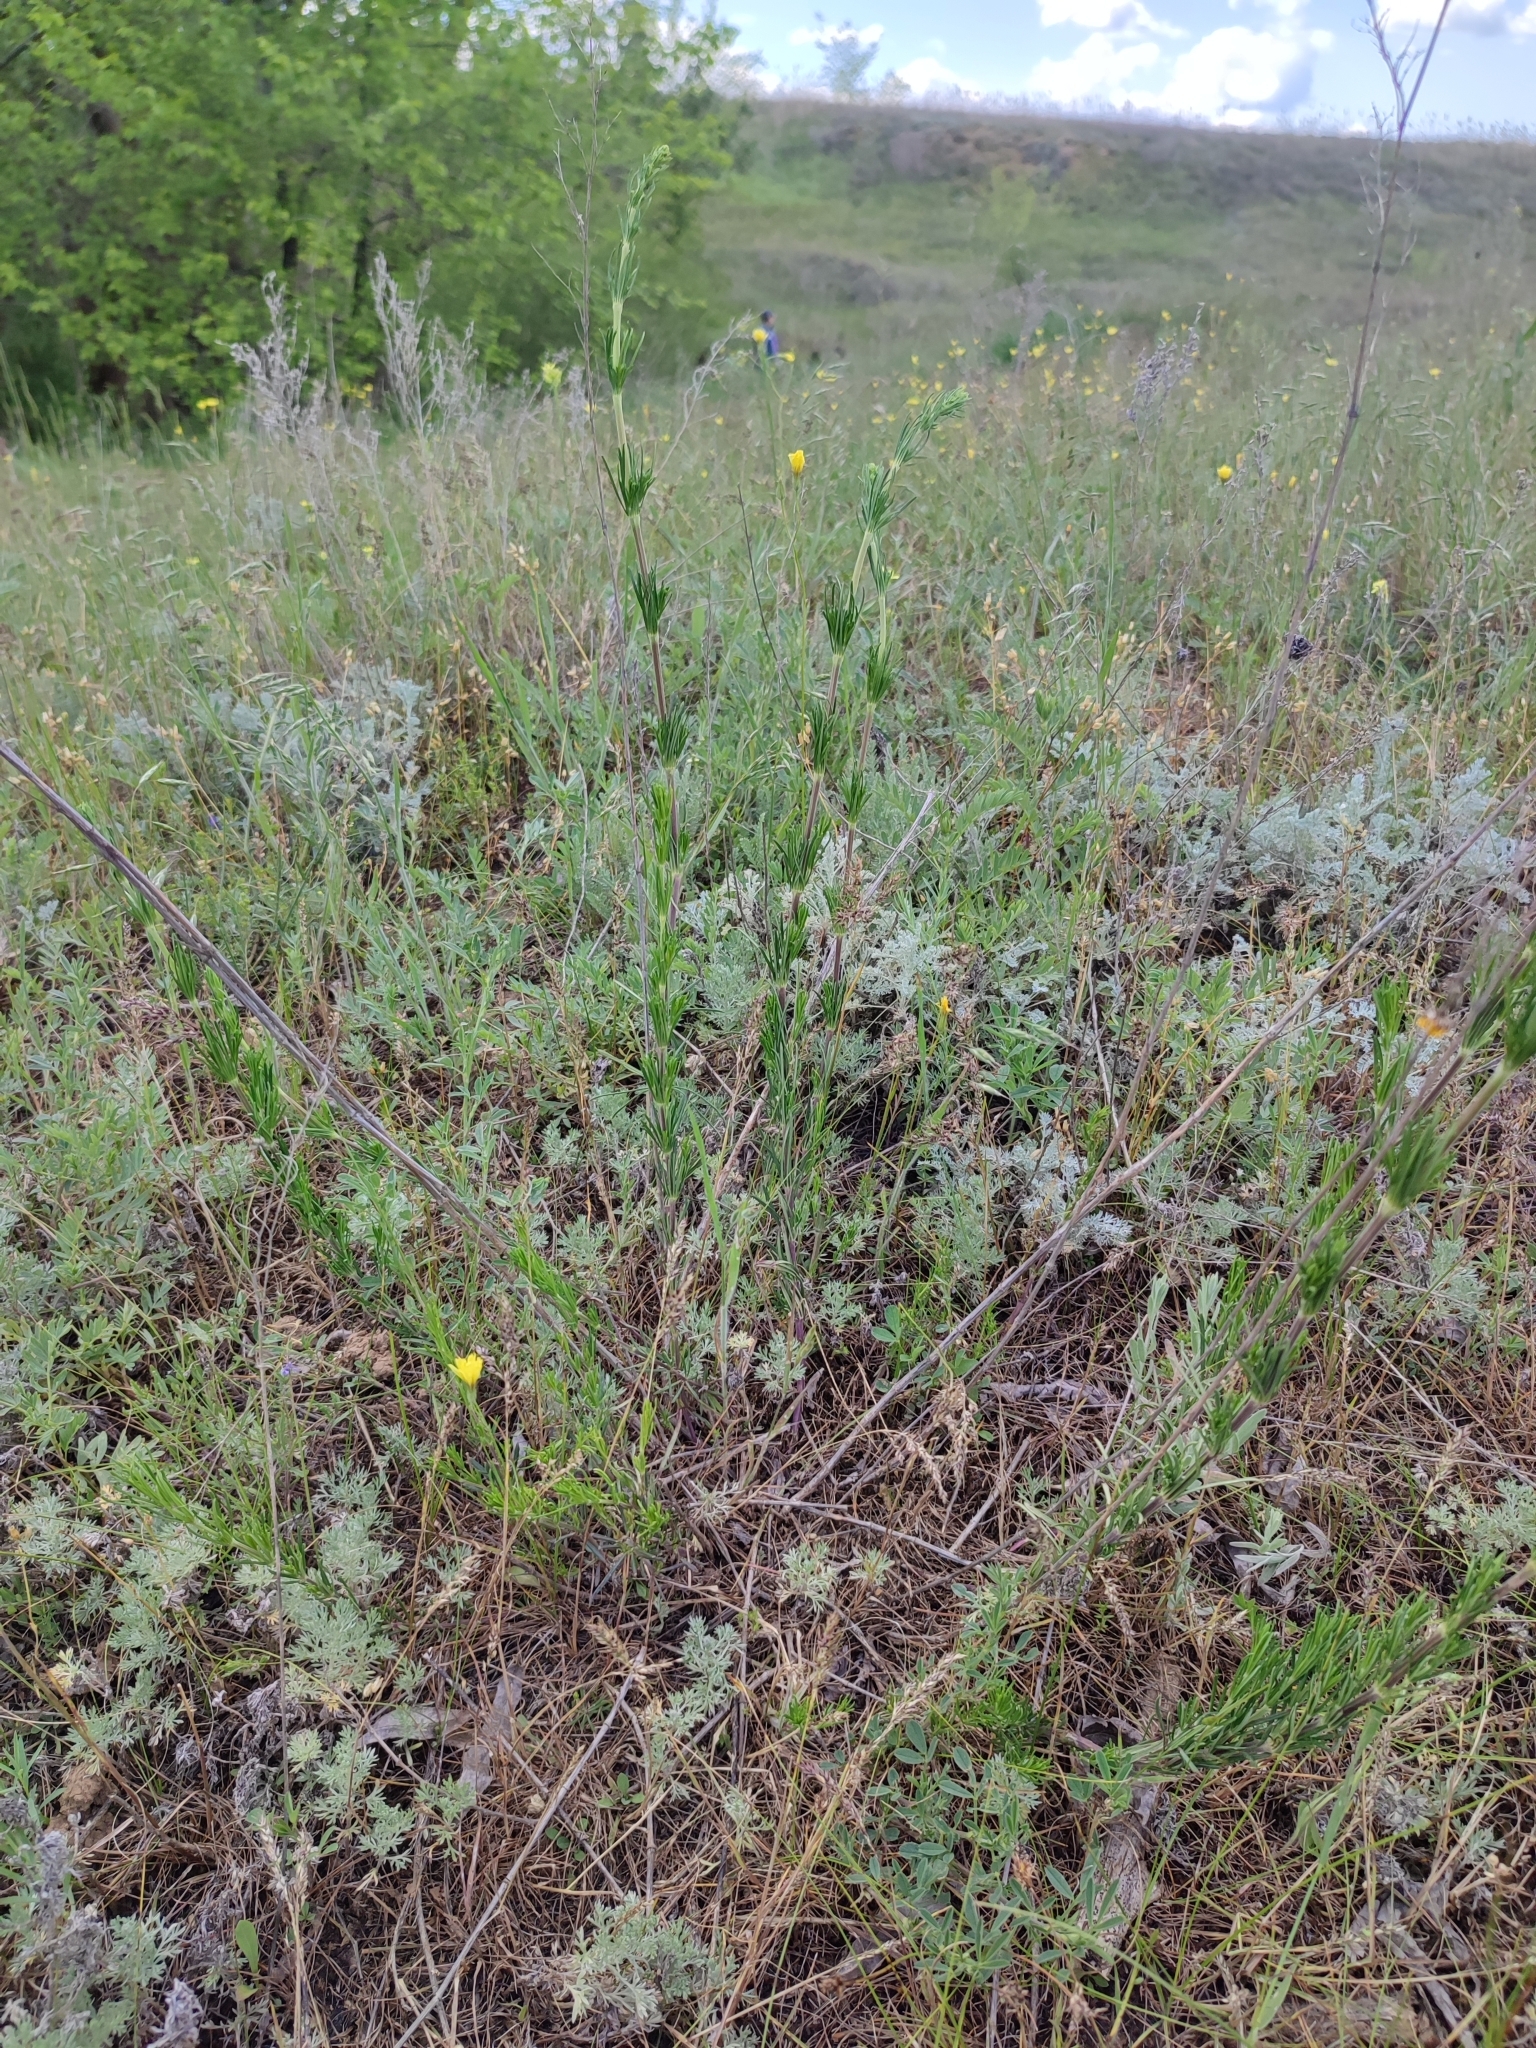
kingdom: Plantae
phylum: Tracheophyta
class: Magnoliopsida
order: Gentianales
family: Rubiaceae
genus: Galium
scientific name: Galium verum
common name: Lady's bedstraw
